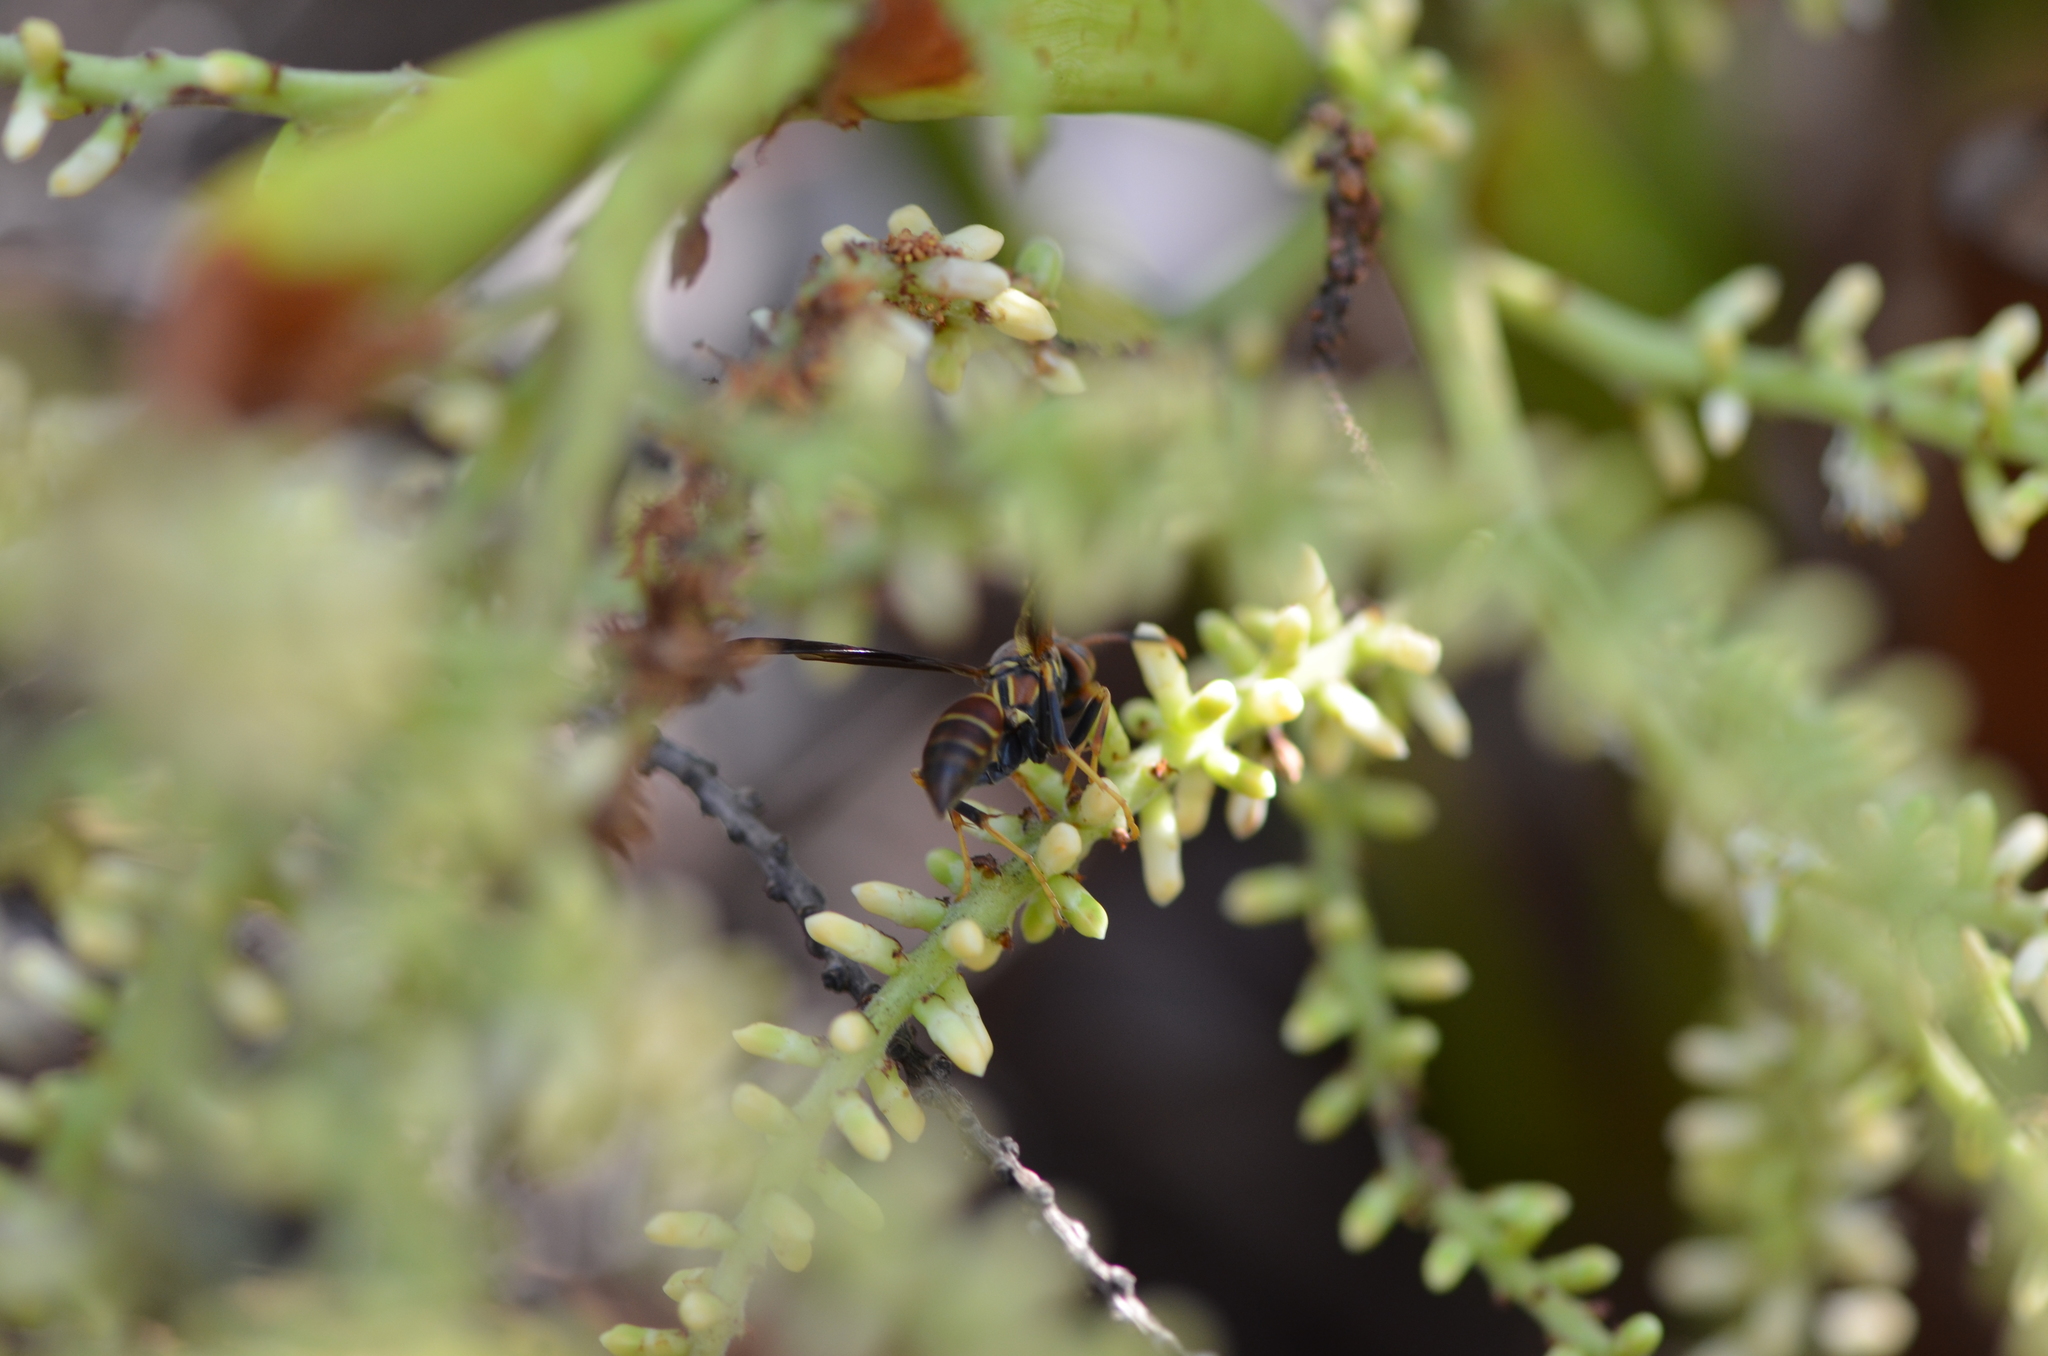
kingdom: Animalia
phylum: Arthropoda
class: Insecta
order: Hymenoptera
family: Eumenidae
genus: Polistes
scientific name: Polistes bahamensis
